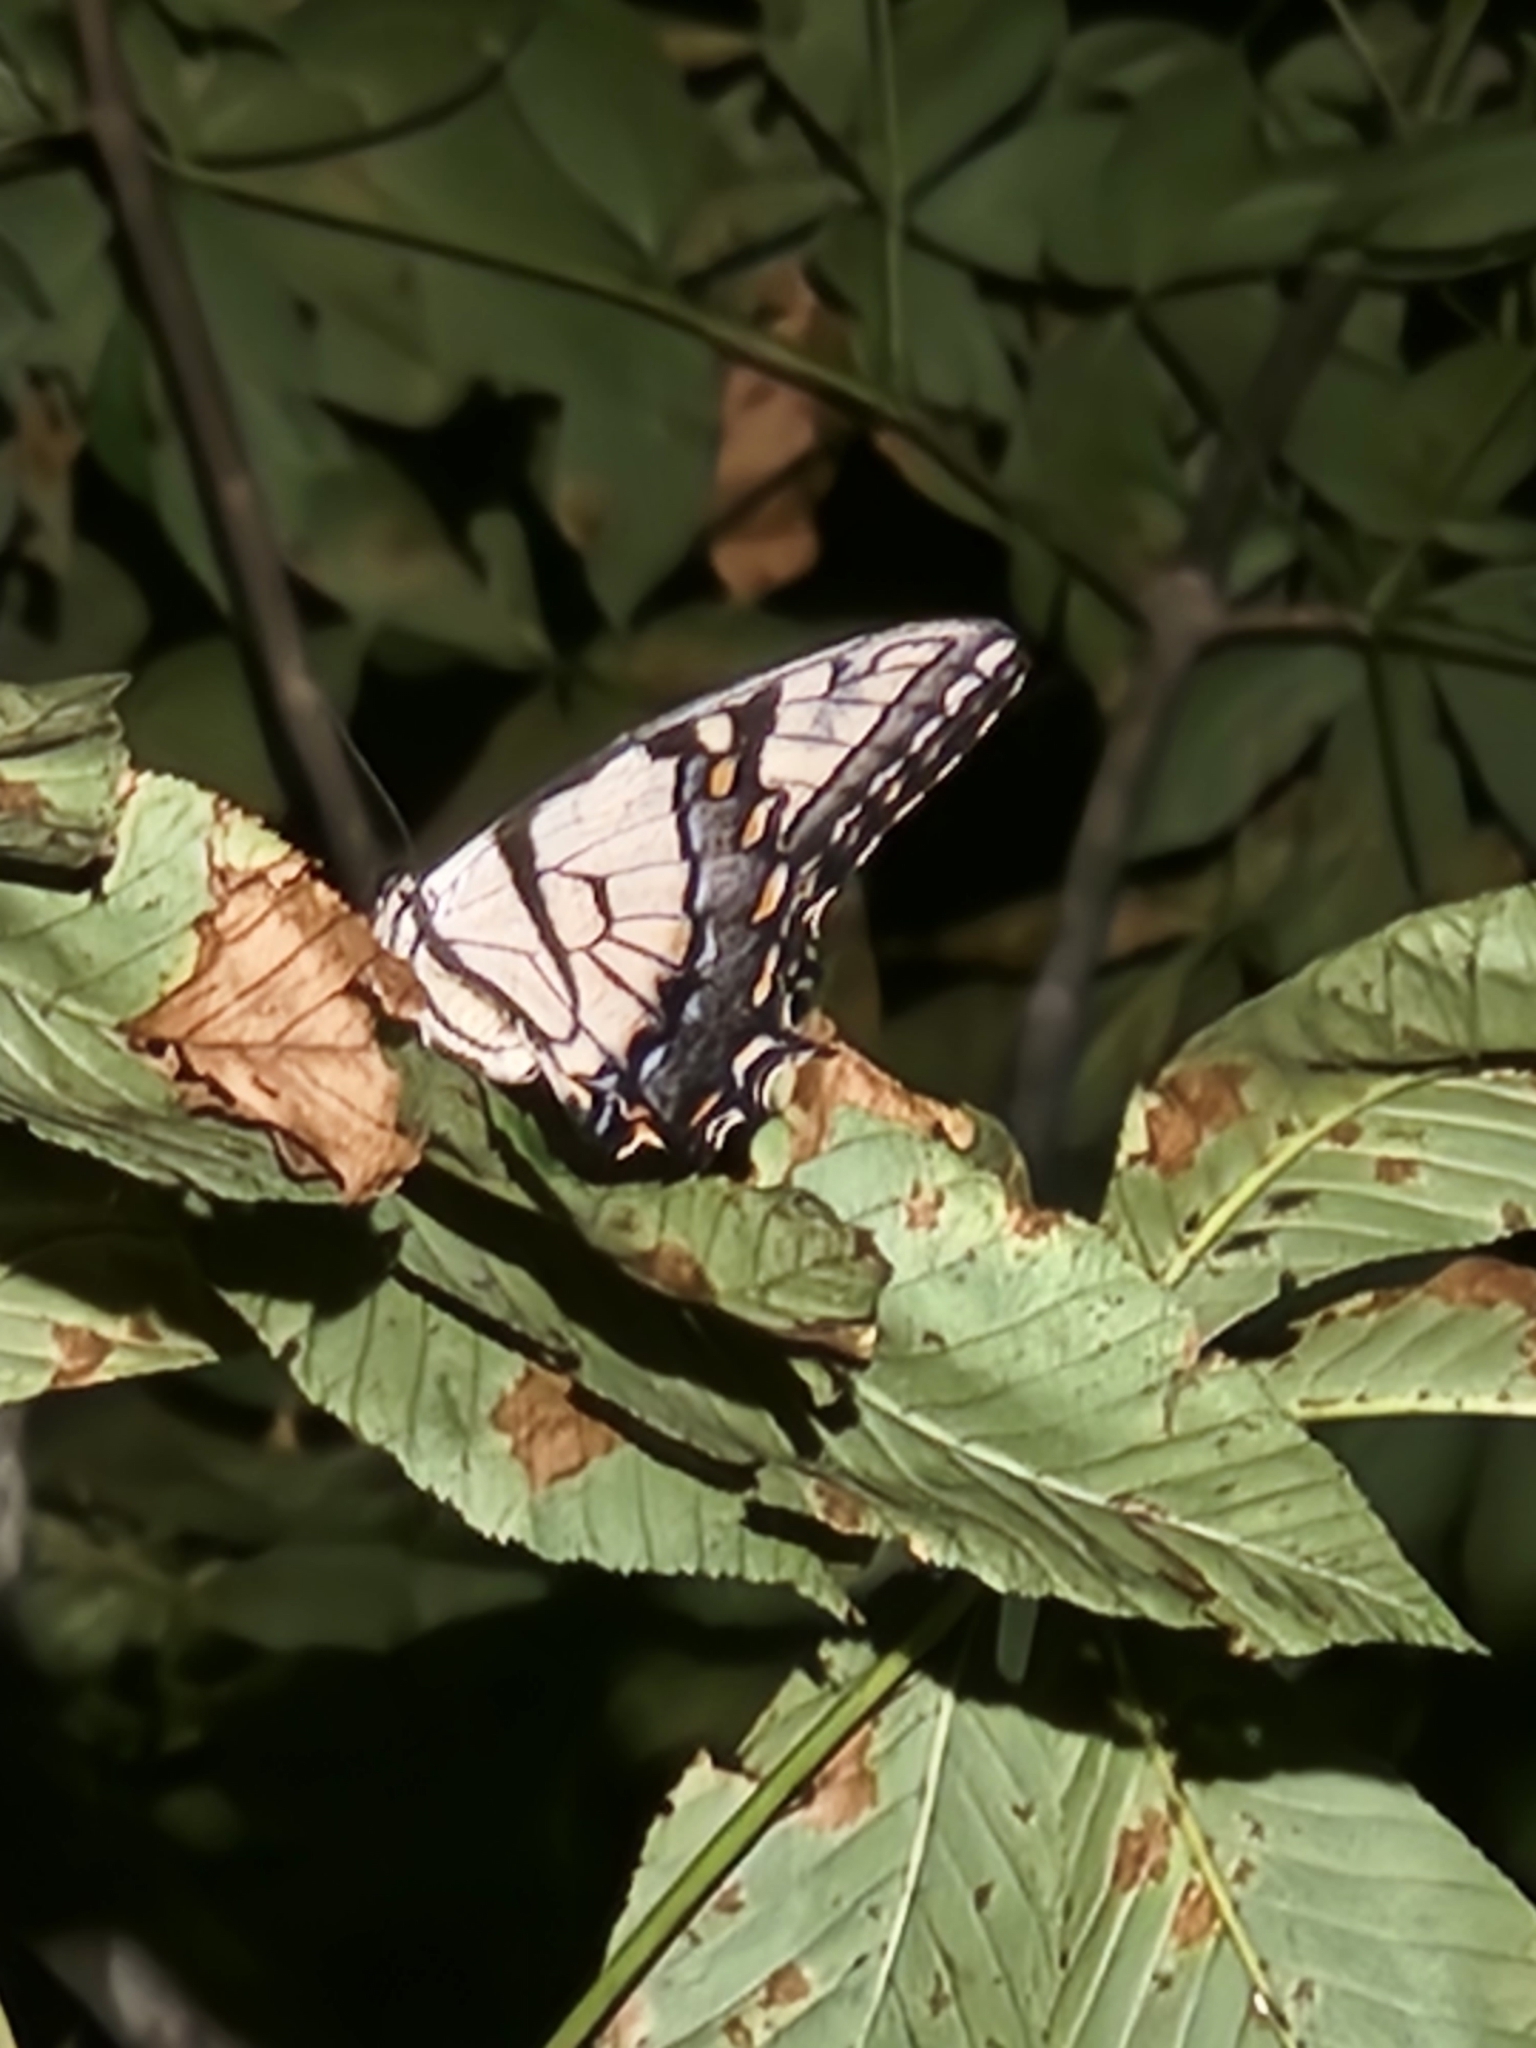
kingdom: Animalia
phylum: Arthropoda
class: Insecta
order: Lepidoptera
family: Papilionidae
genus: Papilio
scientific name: Papilio glaucus
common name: Tiger swallowtail
